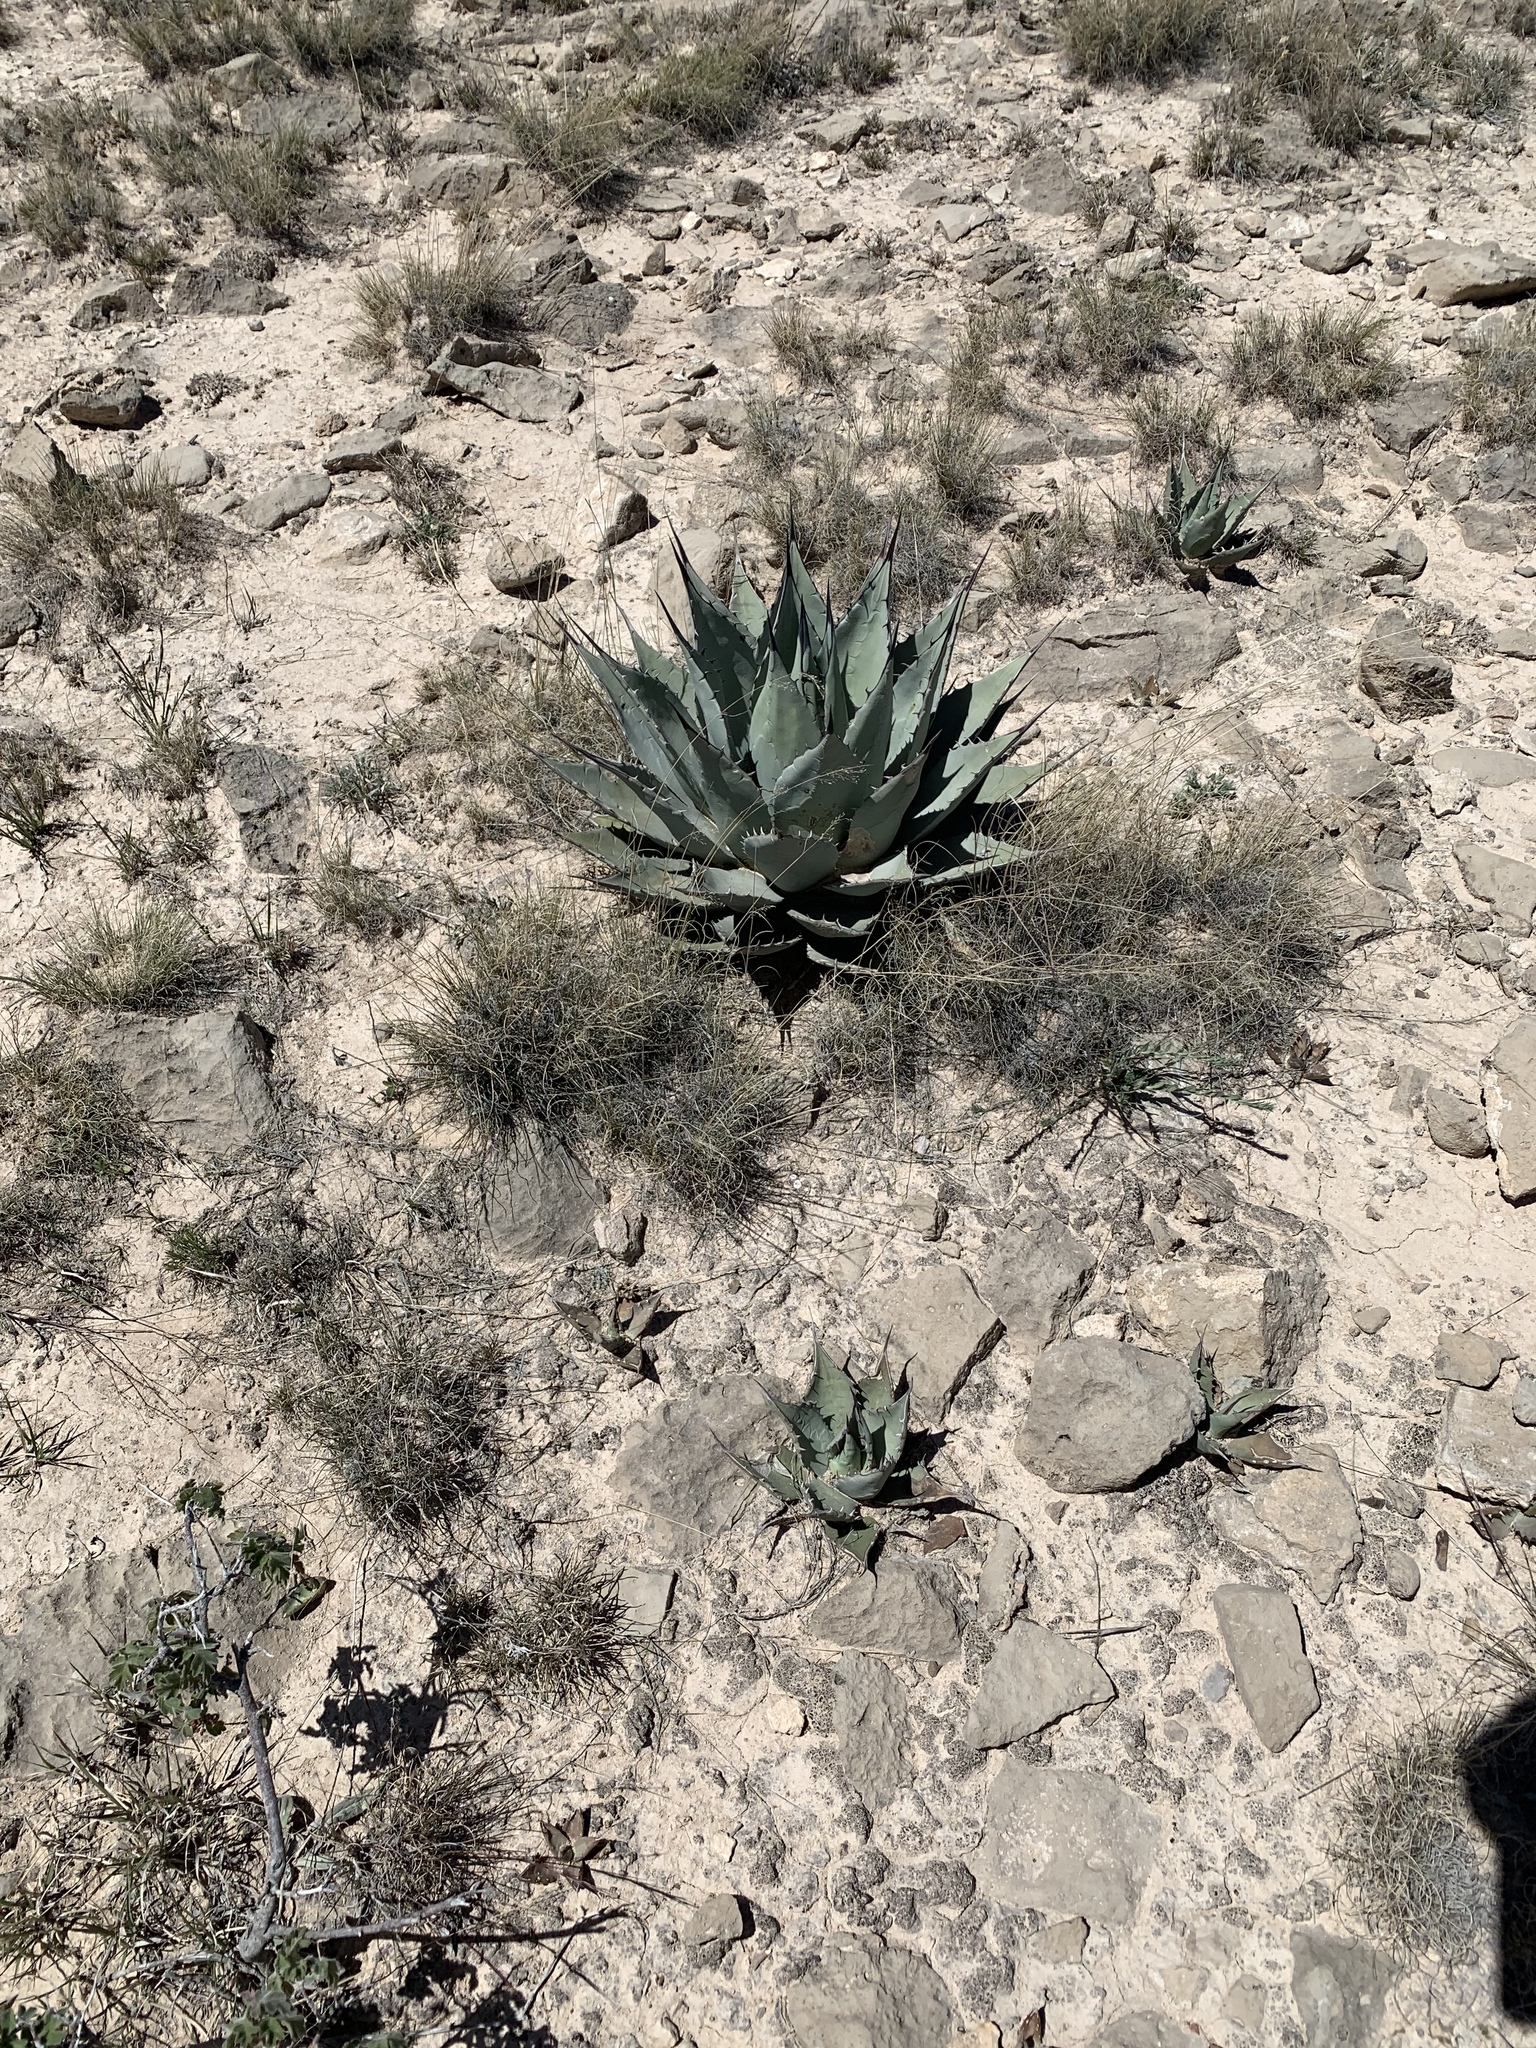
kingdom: Plantae
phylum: Tracheophyta
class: Liliopsida
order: Asparagales
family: Asparagaceae
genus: Agave
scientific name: Agave parryi
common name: Parry's agave
